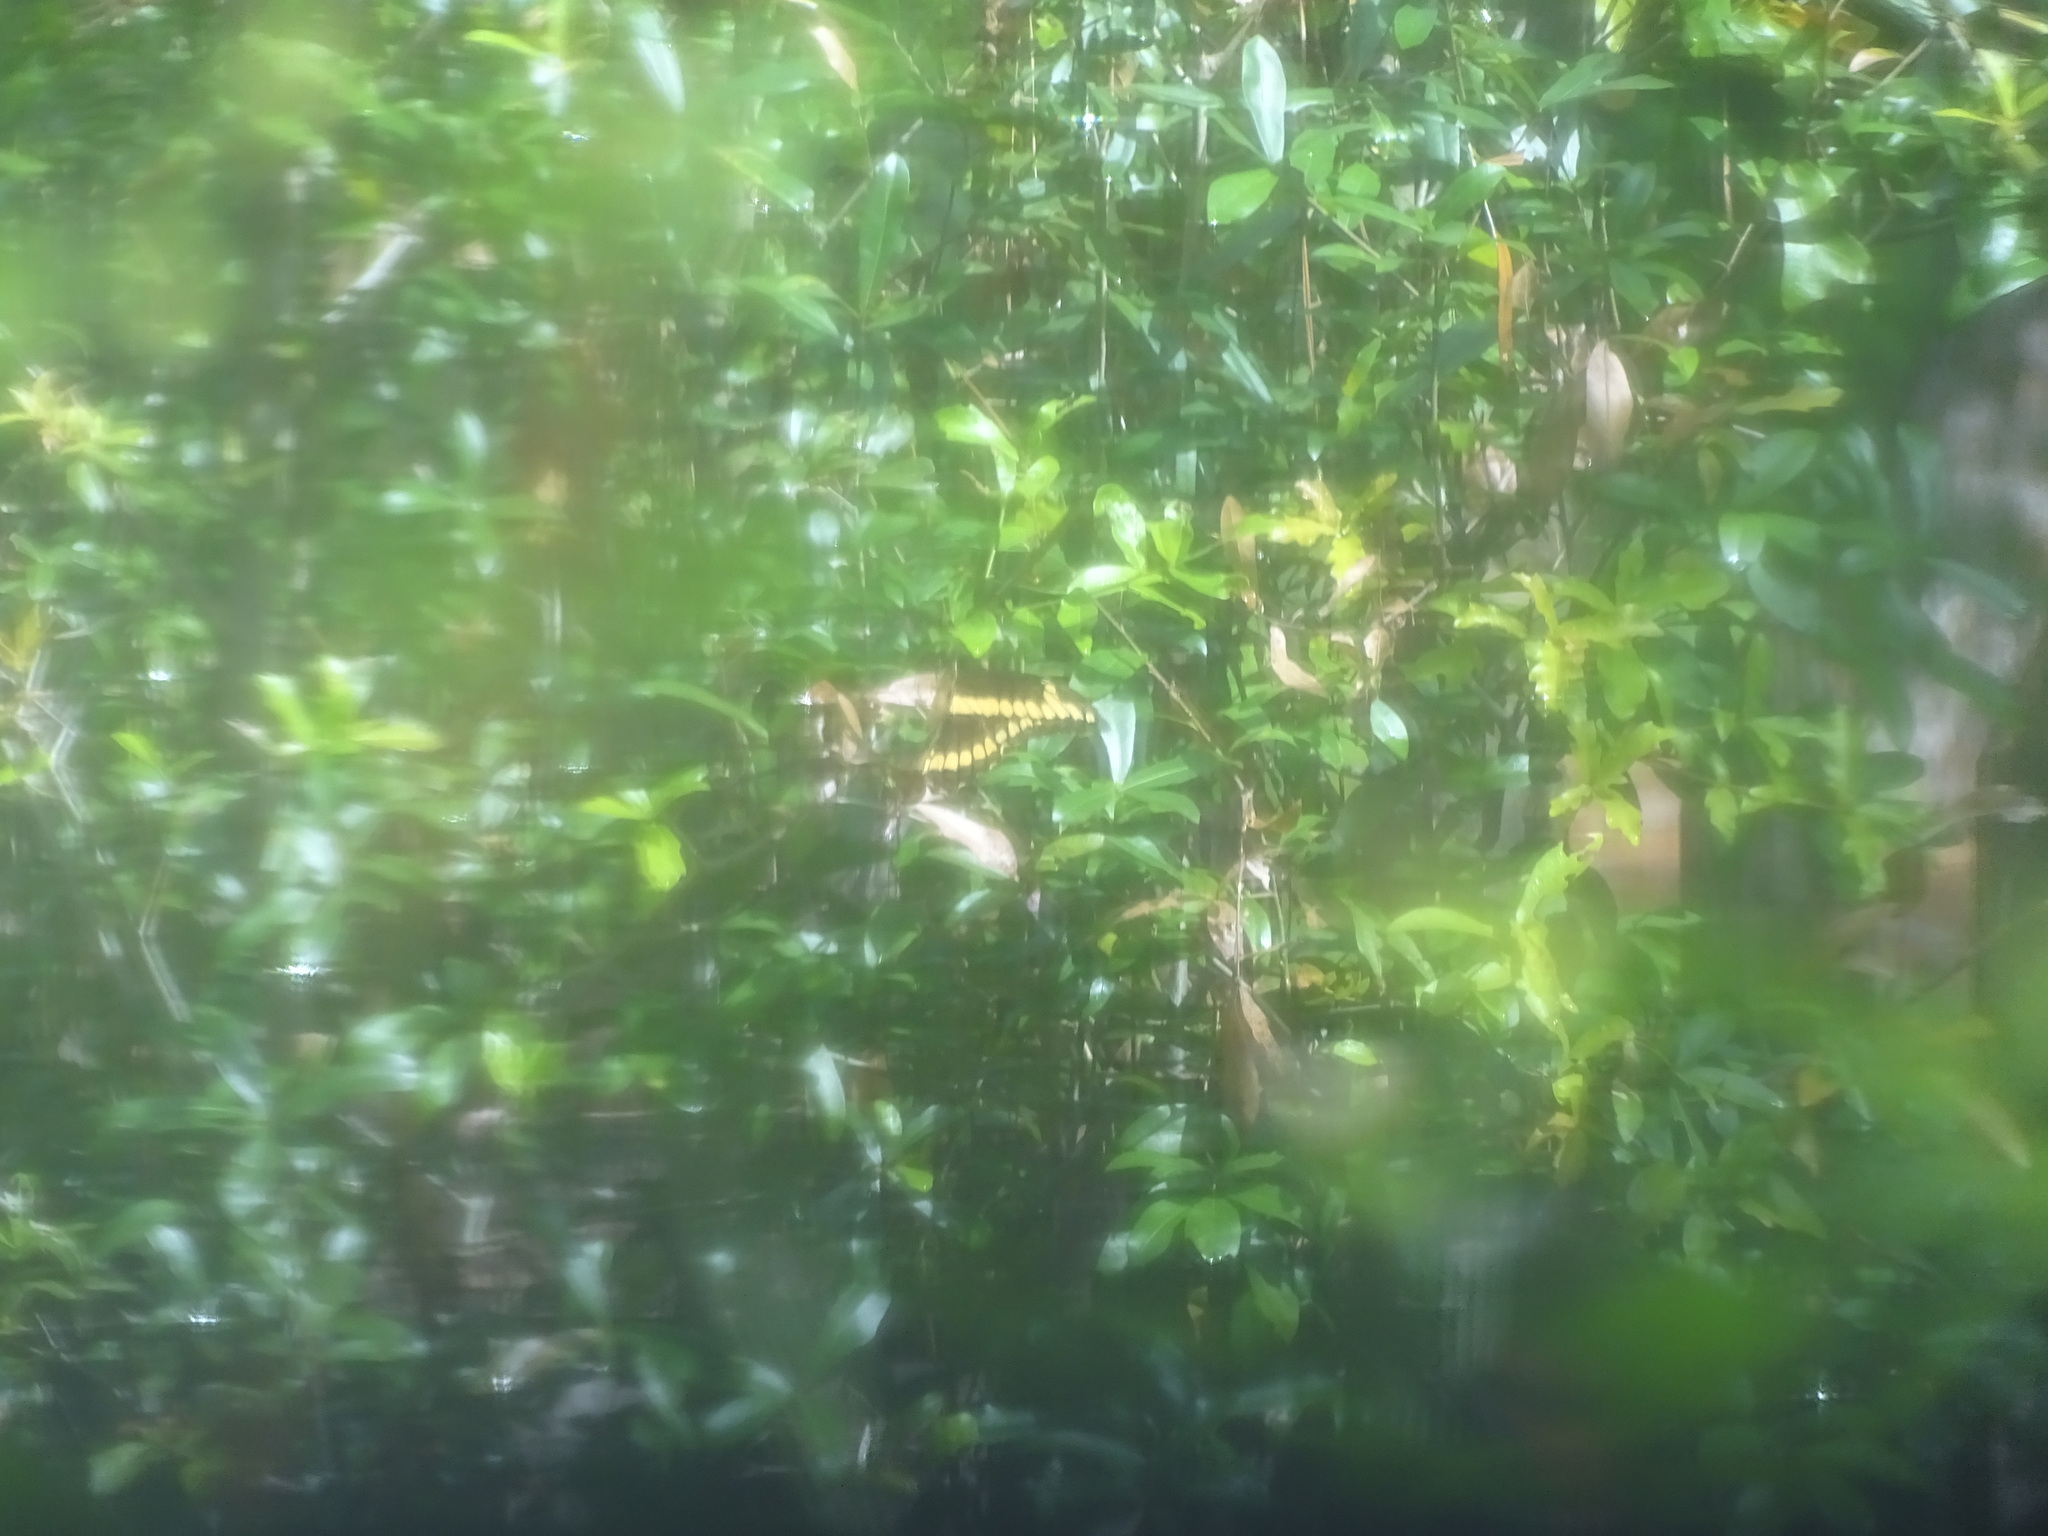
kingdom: Animalia
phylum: Arthropoda
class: Insecta
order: Lepidoptera
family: Papilionidae
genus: Papilio
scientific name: Papilio cresphontes
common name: Giant swallowtail
